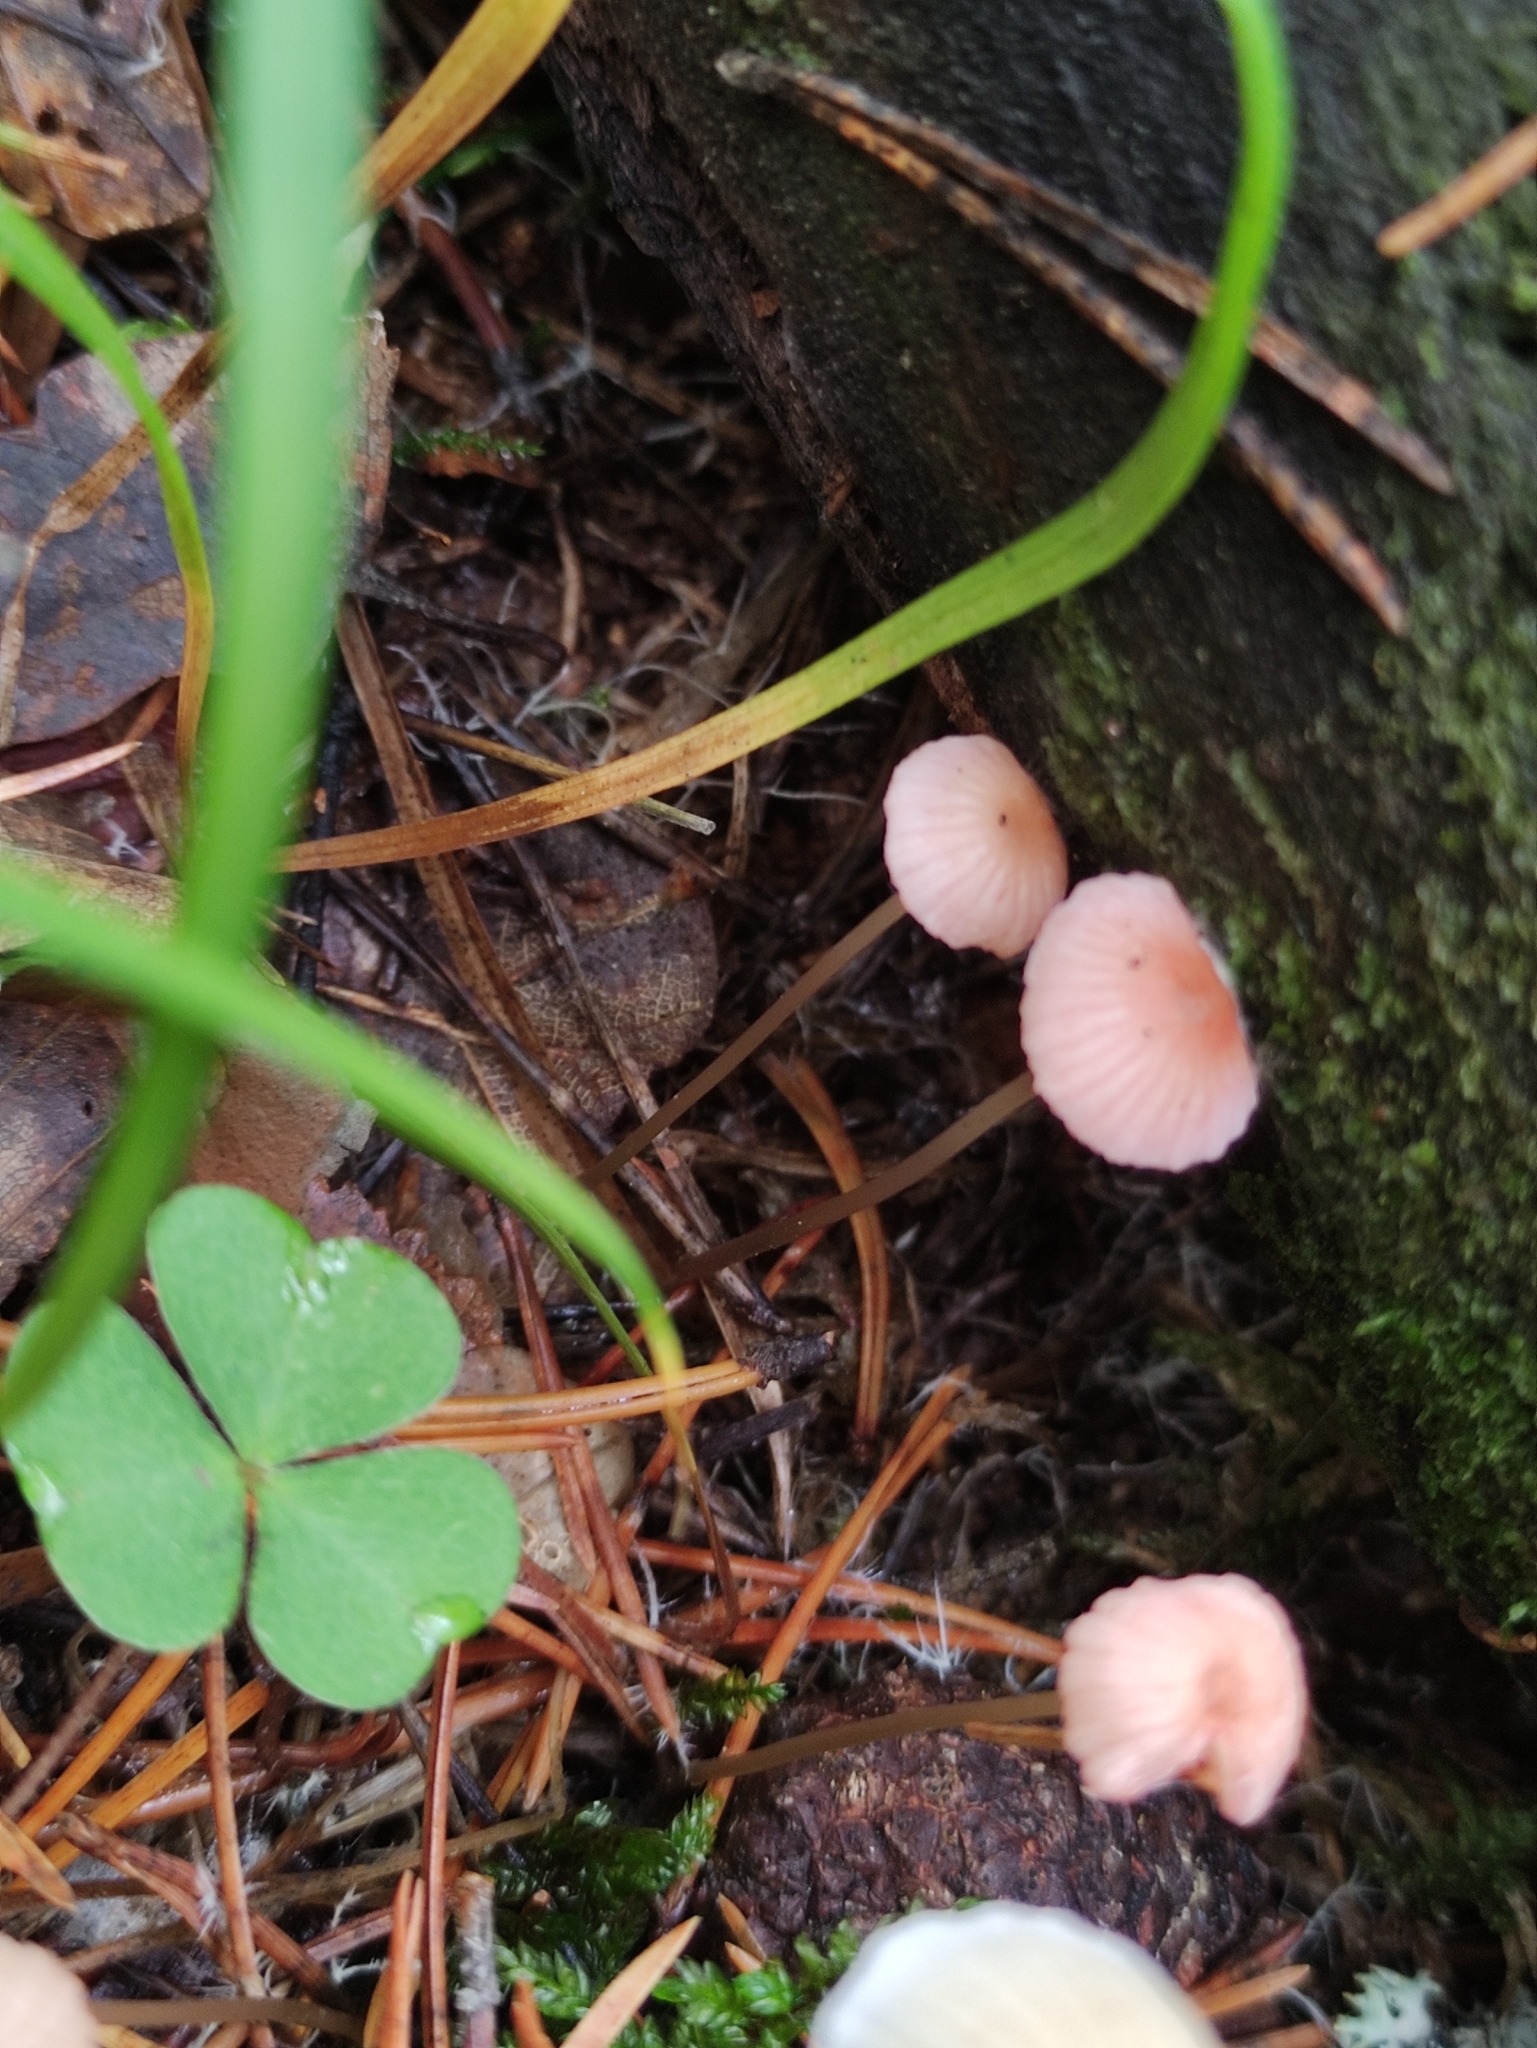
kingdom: Fungi
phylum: Basidiomycota
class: Agaricomycetes
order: Agaricales
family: Mycenaceae
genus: Mycena
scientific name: Mycena rosella
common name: Pink bonnet
